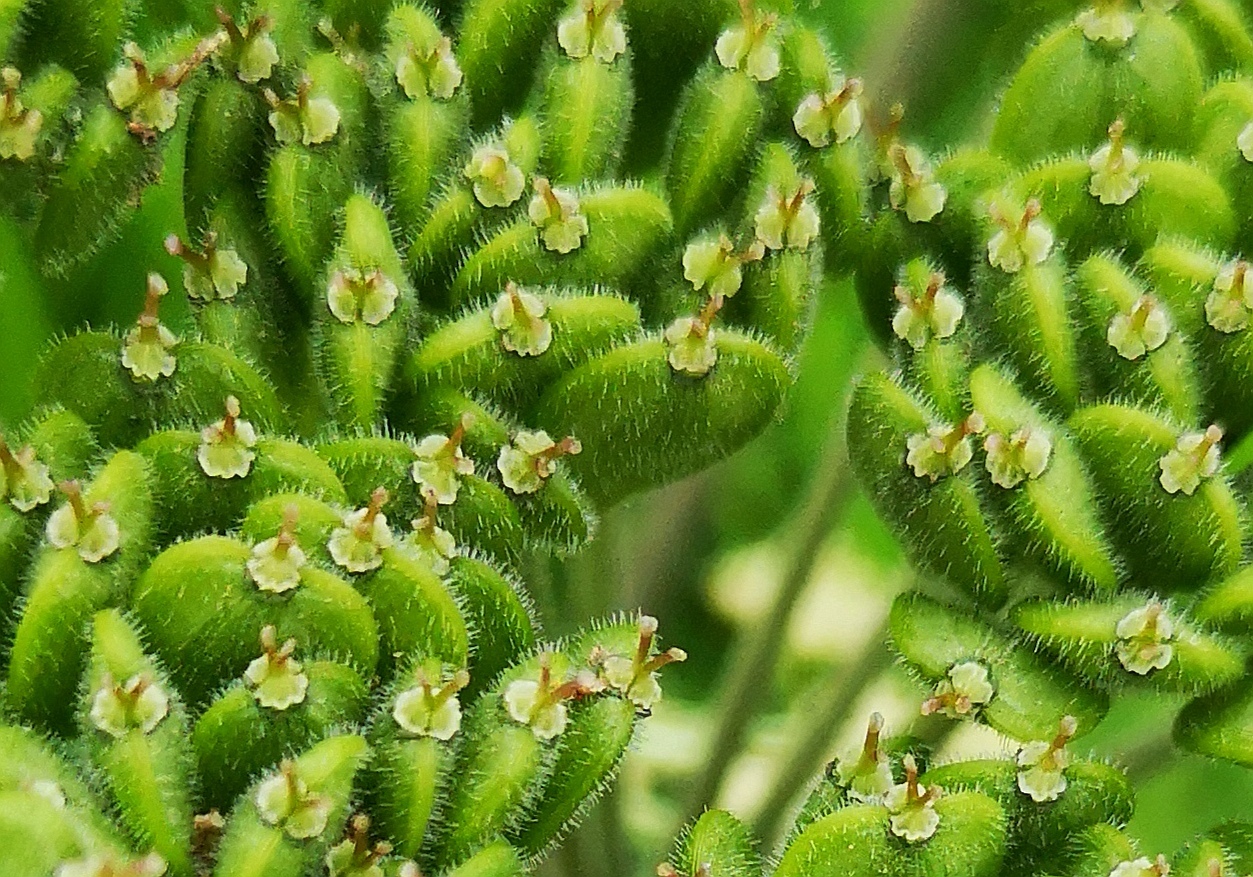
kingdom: Plantae
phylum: Tracheophyta
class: Magnoliopsida
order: Apiales
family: Apiaceae
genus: Heracleum
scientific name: Heracleum sphondylium
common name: Hogweed
